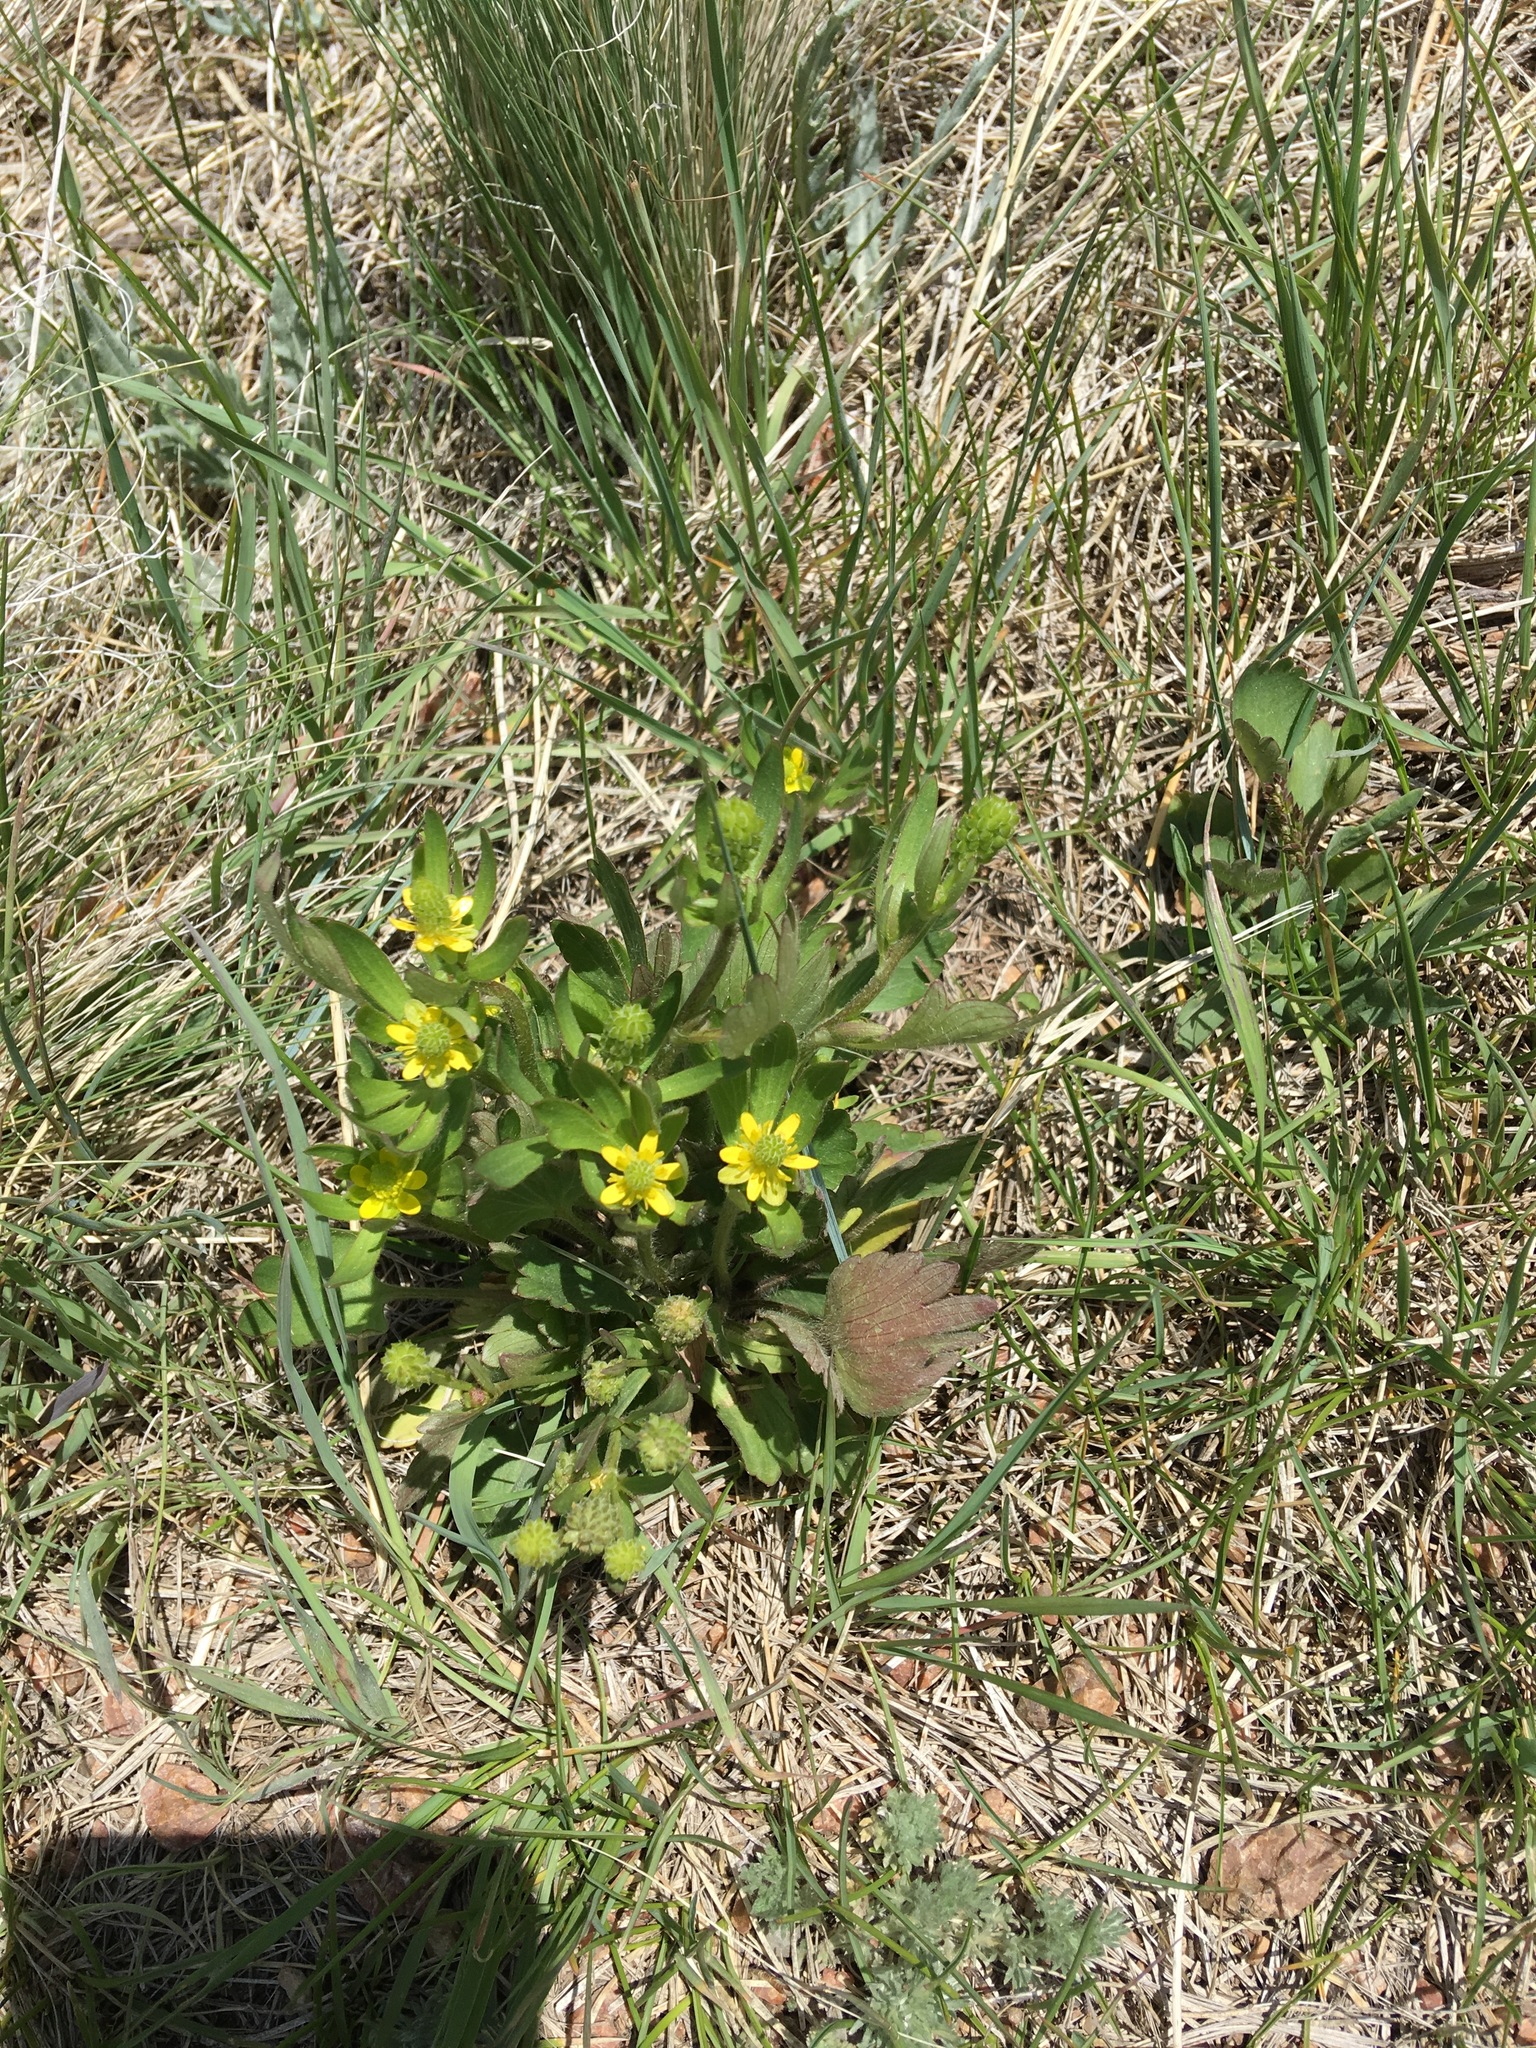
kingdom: Plantae
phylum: Tracheophyta
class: Magnoliopsida
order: Ranunculales
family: Ranunculaceae
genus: Ranunculus
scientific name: Ranunculus sceleratus
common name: Celery-leaved buttercup
